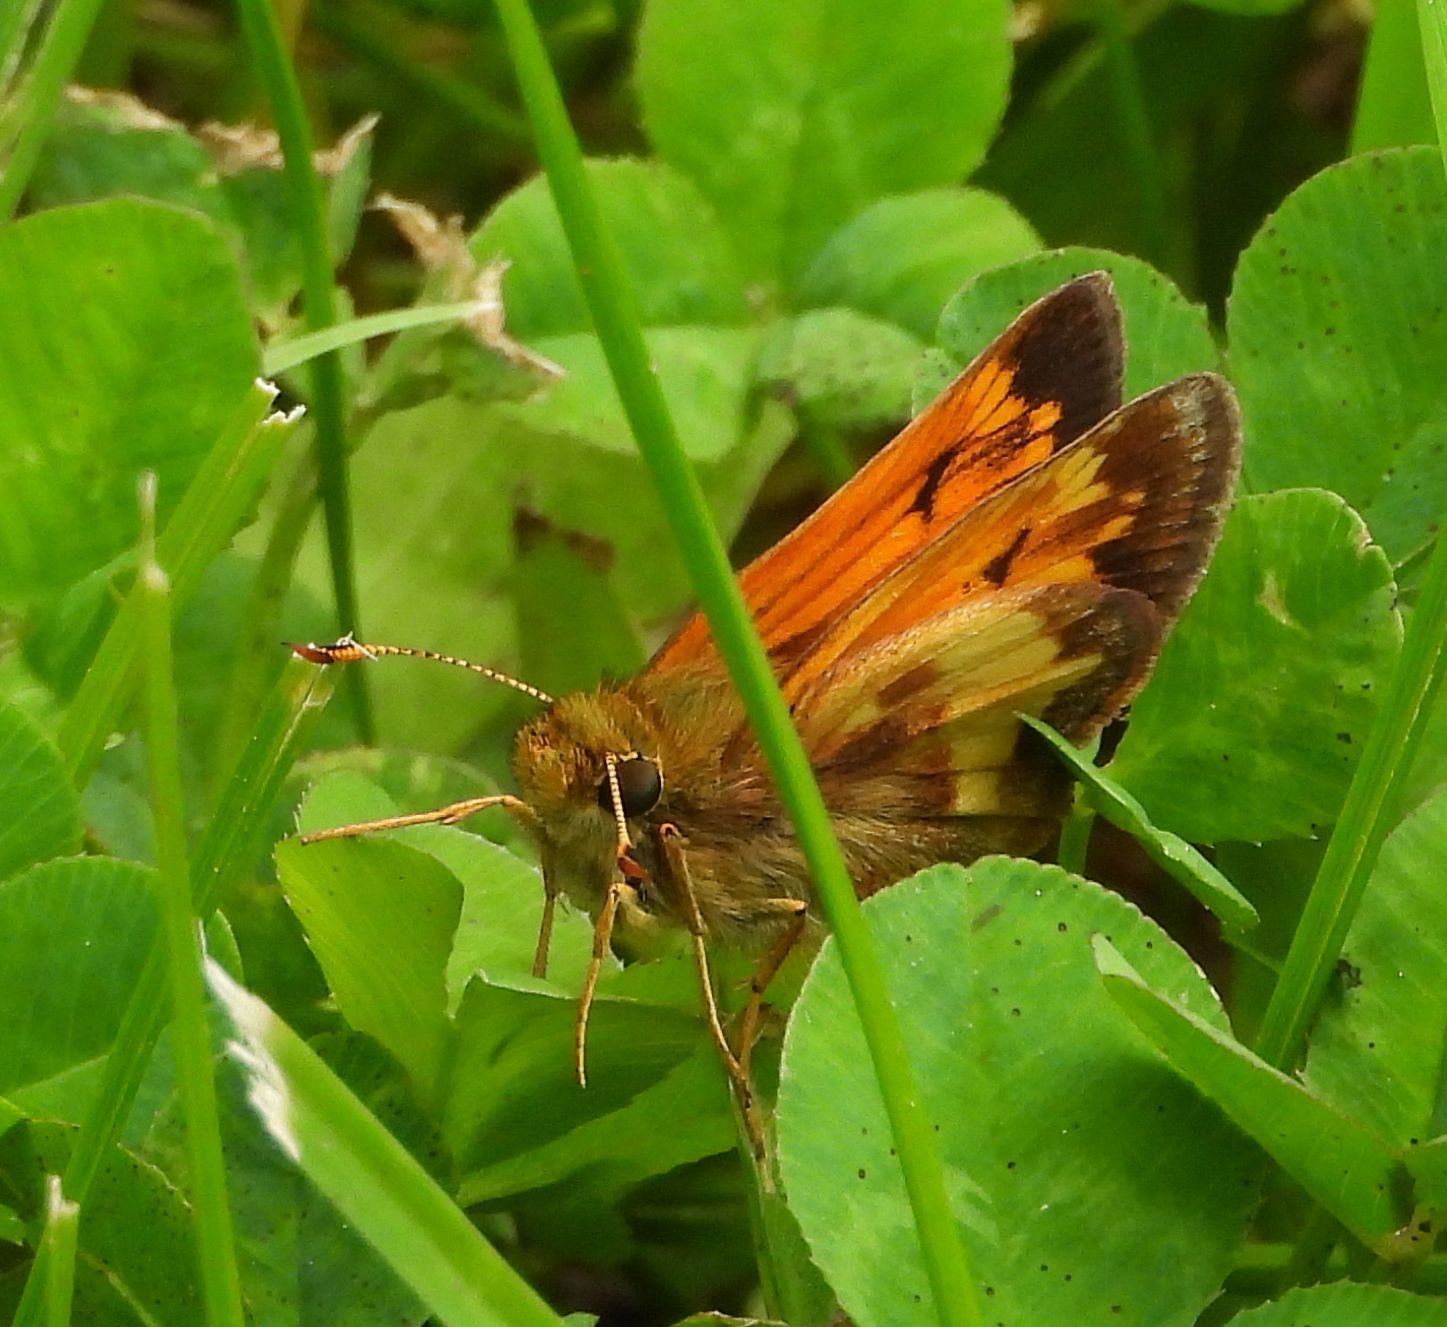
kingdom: Animalia
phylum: Arthropoda
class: Insecta
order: Lepidoptera
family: Hesperiidae
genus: Lon
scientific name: Lon hobomok
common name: Hobomok skipper
